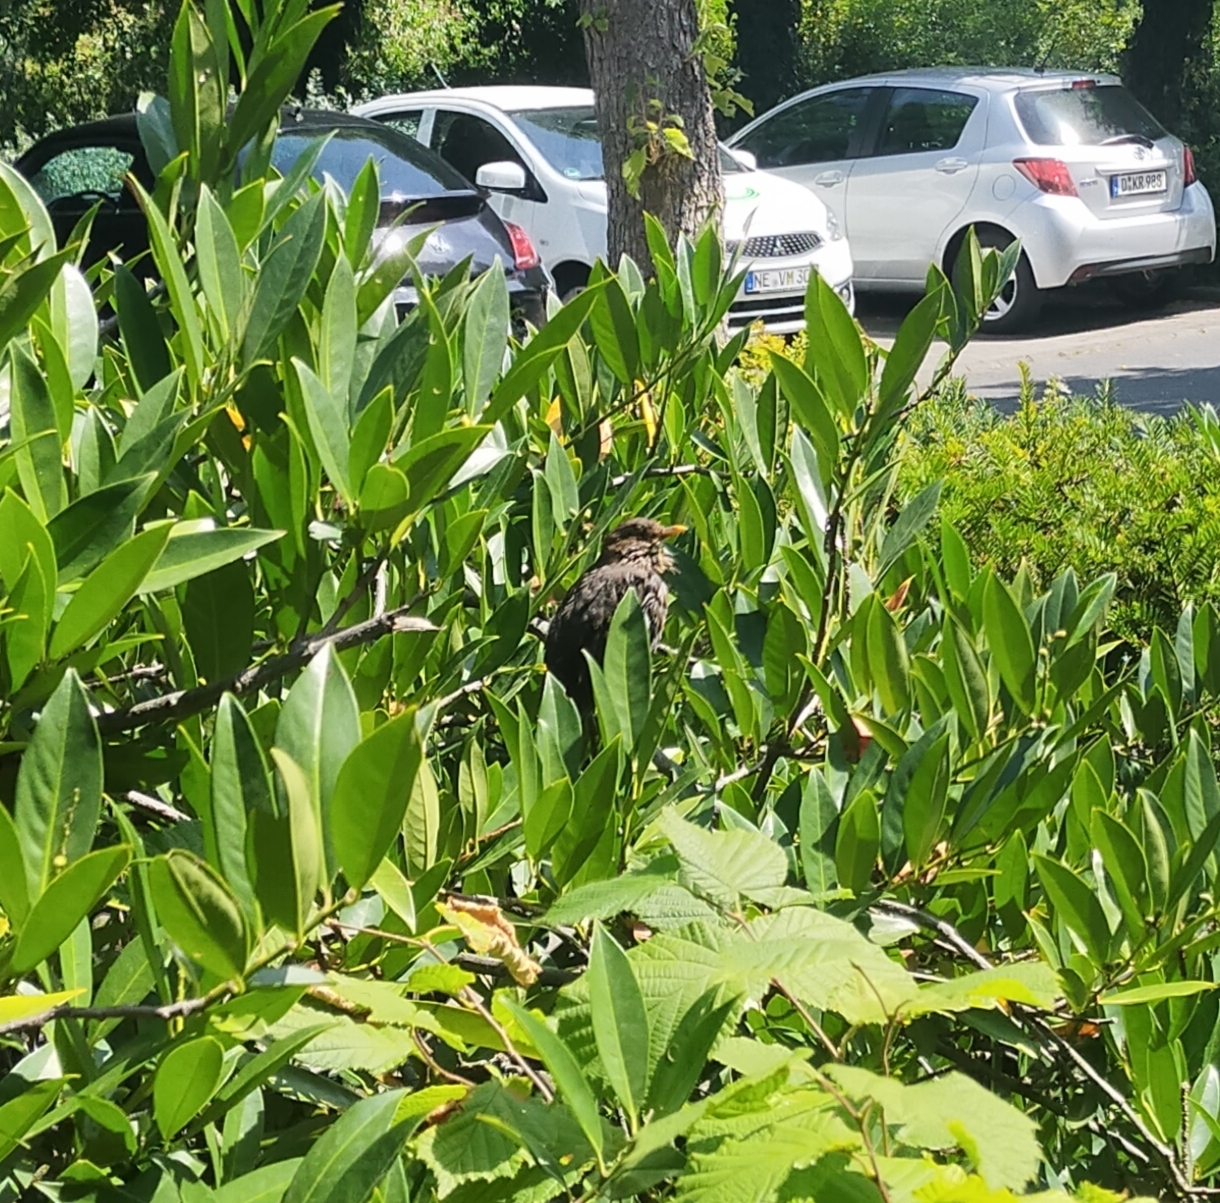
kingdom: Animalia
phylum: Chordata
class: Aves
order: Passeriformes
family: Turdidae
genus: Turdus
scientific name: Turdus merula
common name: Common blackbird
